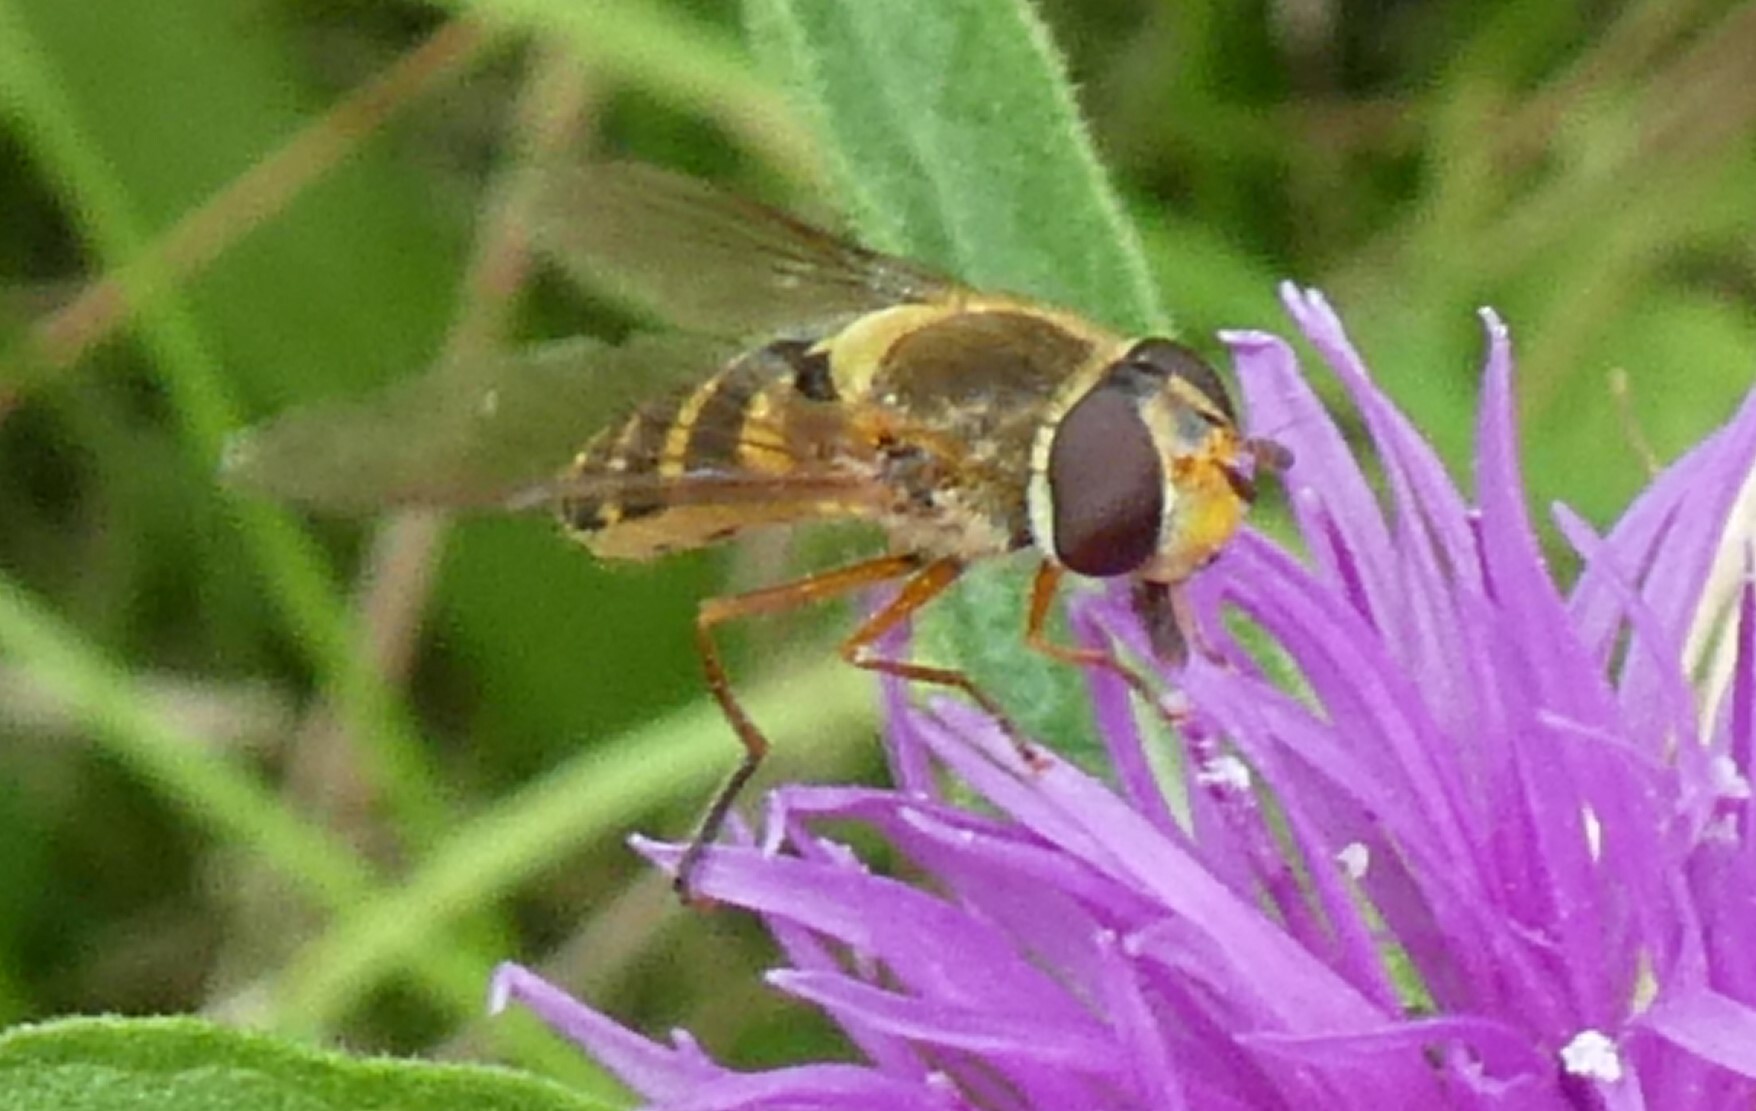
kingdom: Animalia
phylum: Arthropoda
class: Insecta
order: Diptera
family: Syrphidae
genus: Syrphus
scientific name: Syrphus ribesii
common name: Common flower fly
